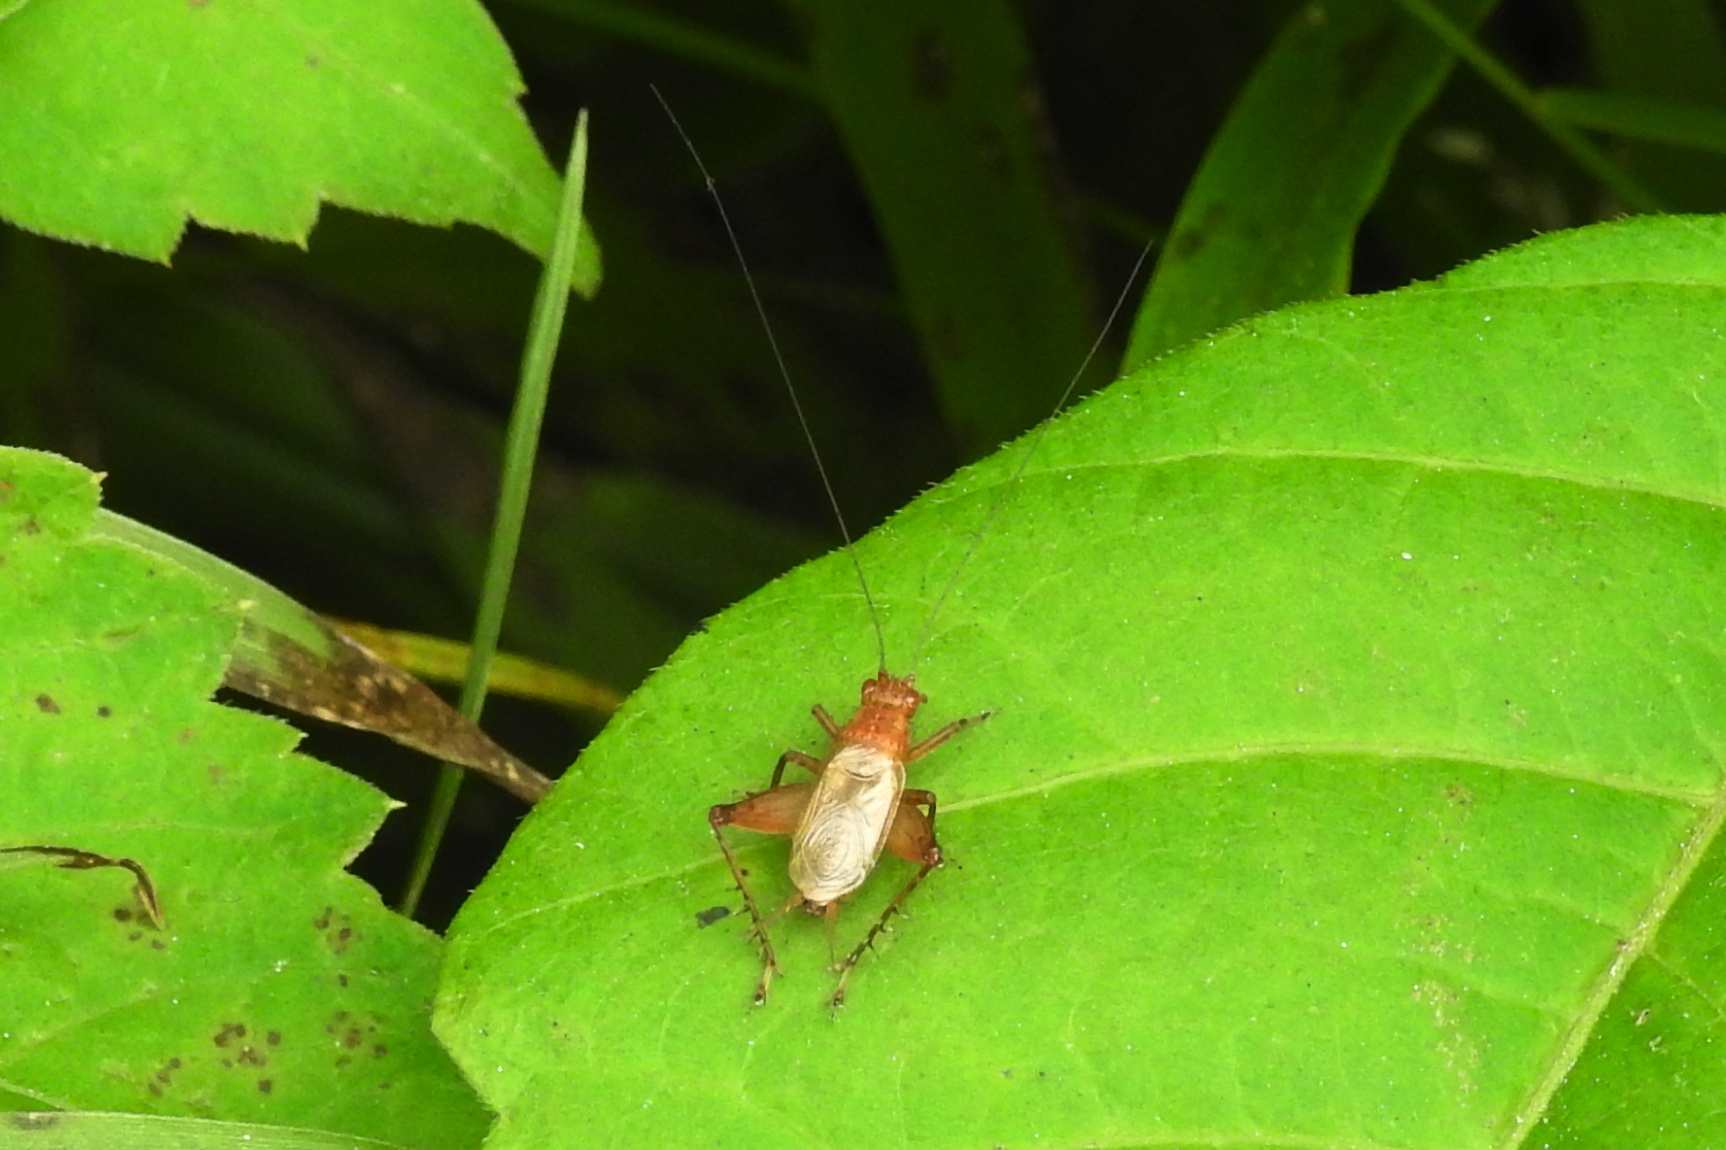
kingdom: Animalia
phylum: Arthropoda
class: Insecta
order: Orthoptera
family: Trigonidiidae
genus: Anaxipha
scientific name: Anaxipha vernalis
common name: Spring trig
